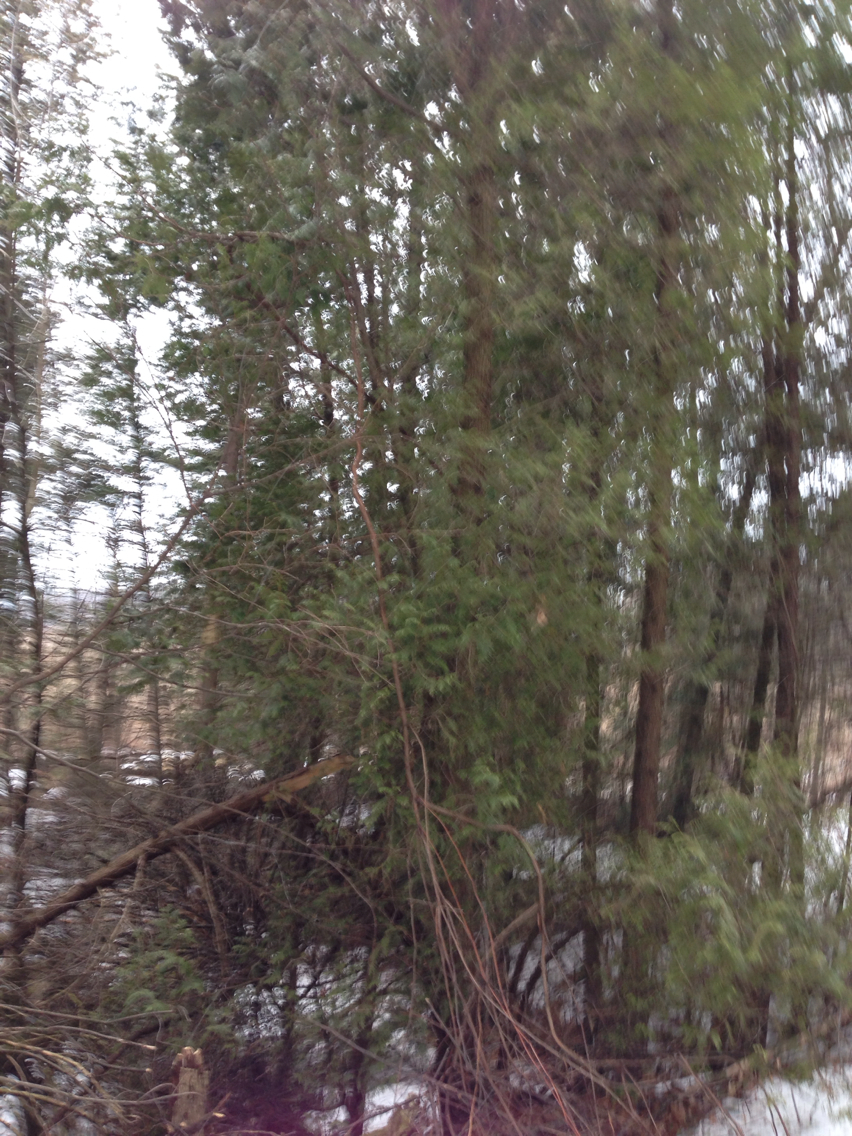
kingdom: Plantae
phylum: Tracheophyta
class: Pinopsida
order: Pinales
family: Cupressaceae
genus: Thuja
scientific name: Thuja occidentalis
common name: Northern white-cedar
